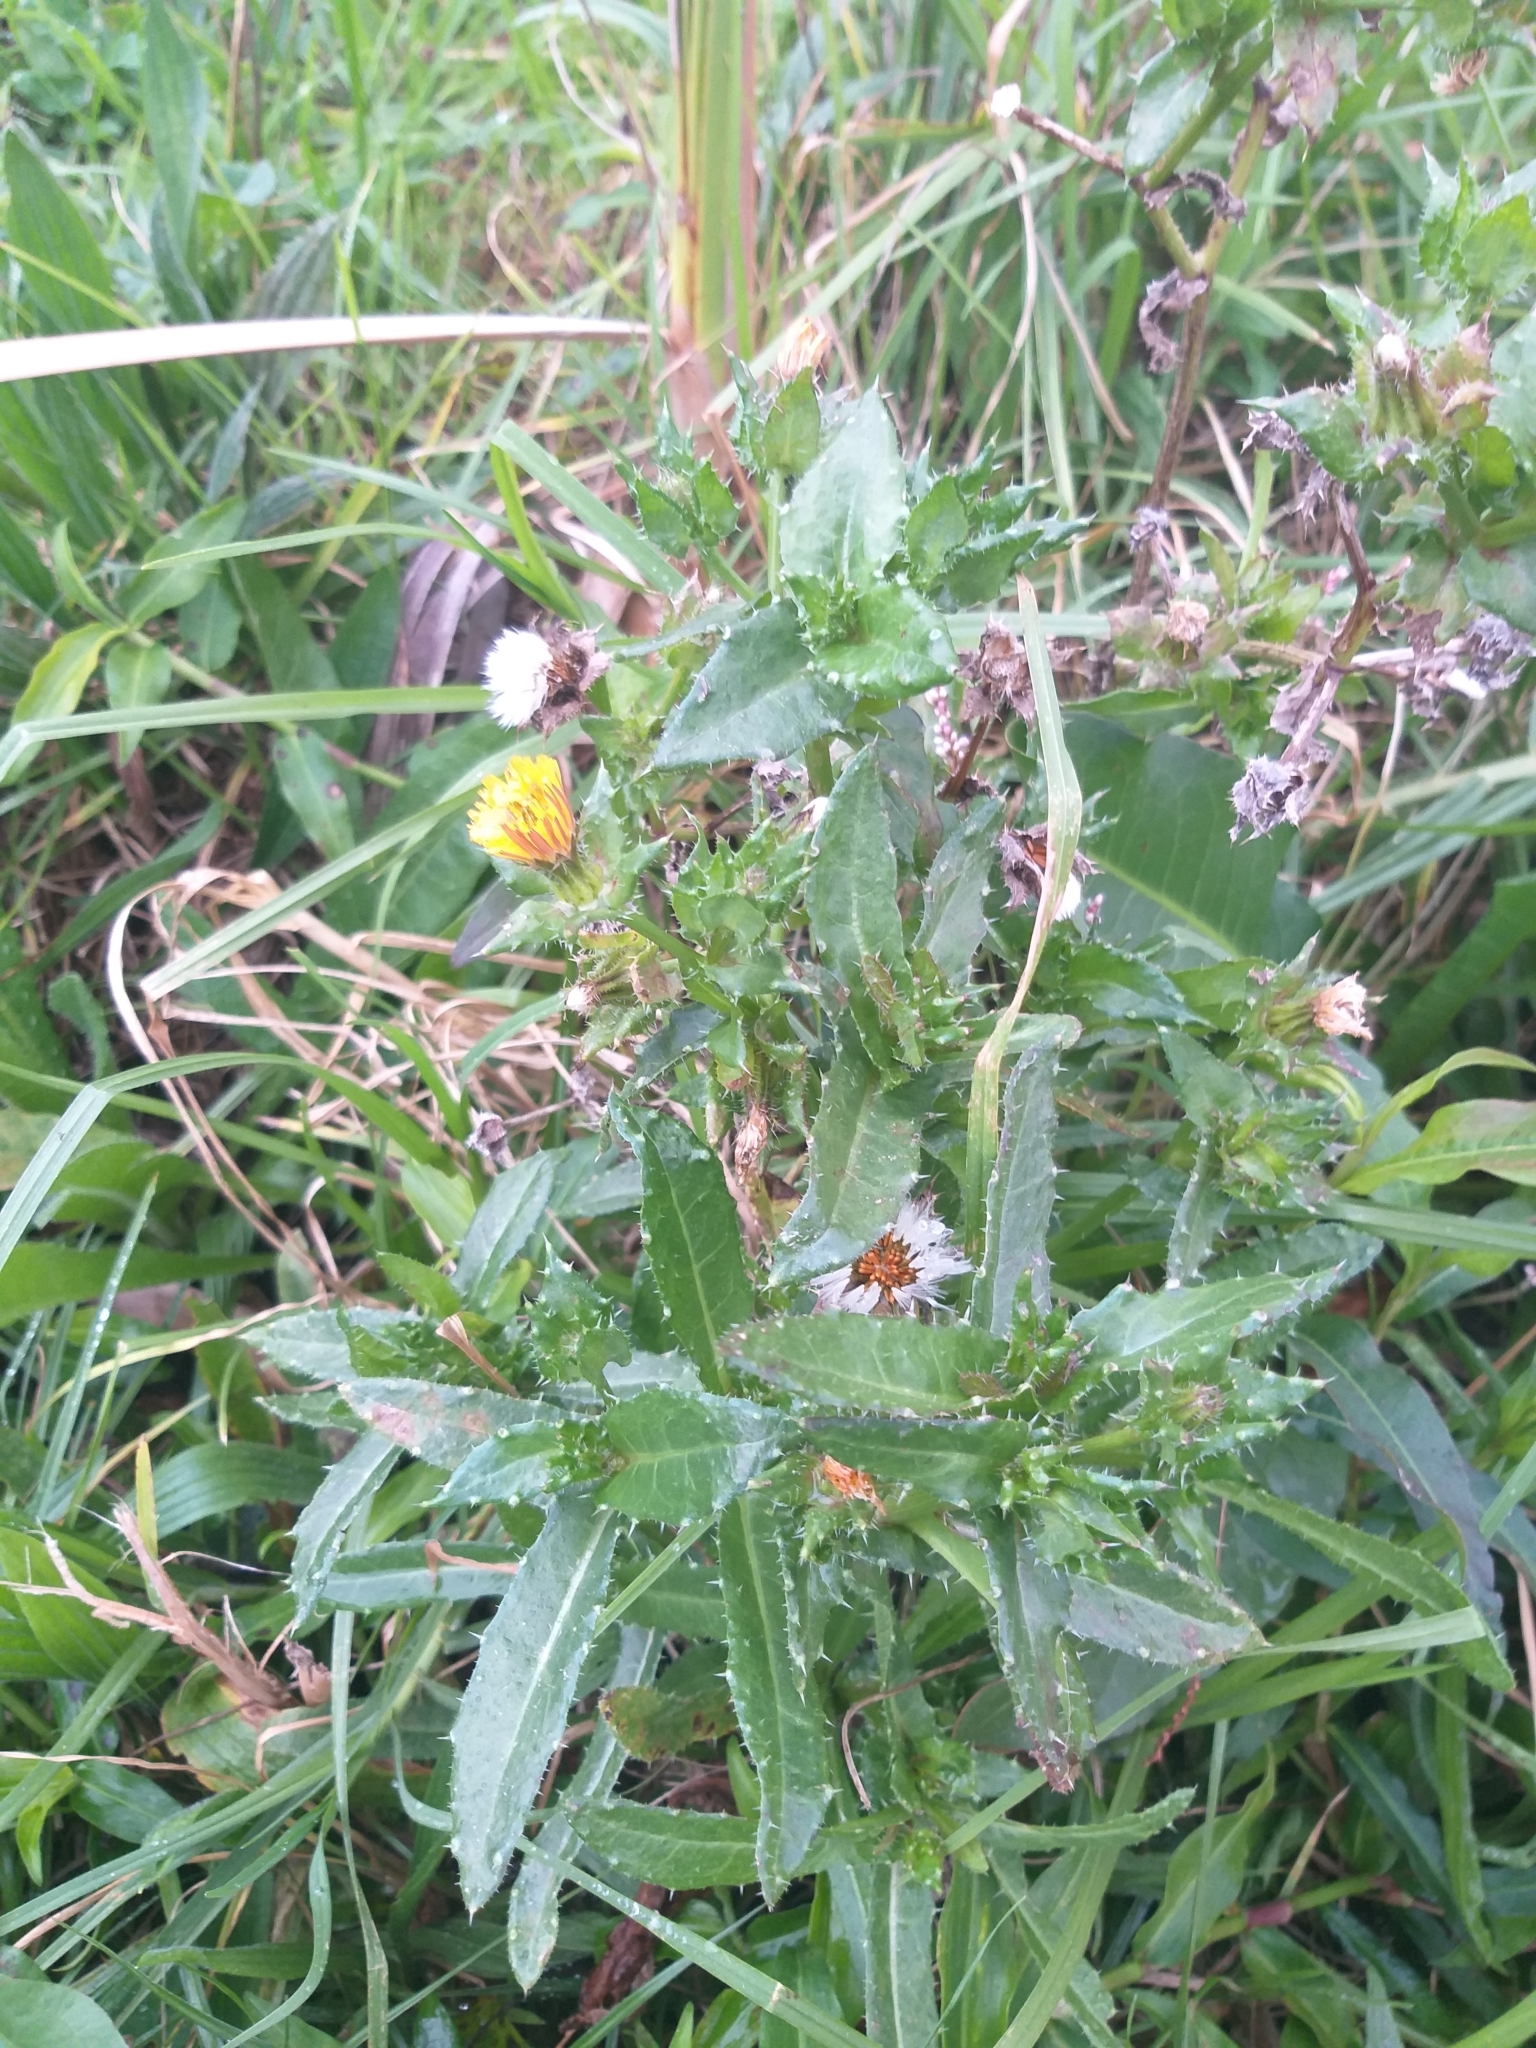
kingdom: Plantae
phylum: Tracheophyta
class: Magnoliopsida
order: Asterales
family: Asteraceae
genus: Helminthotheca
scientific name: Helminthotheca echioides
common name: Ox-tongue
